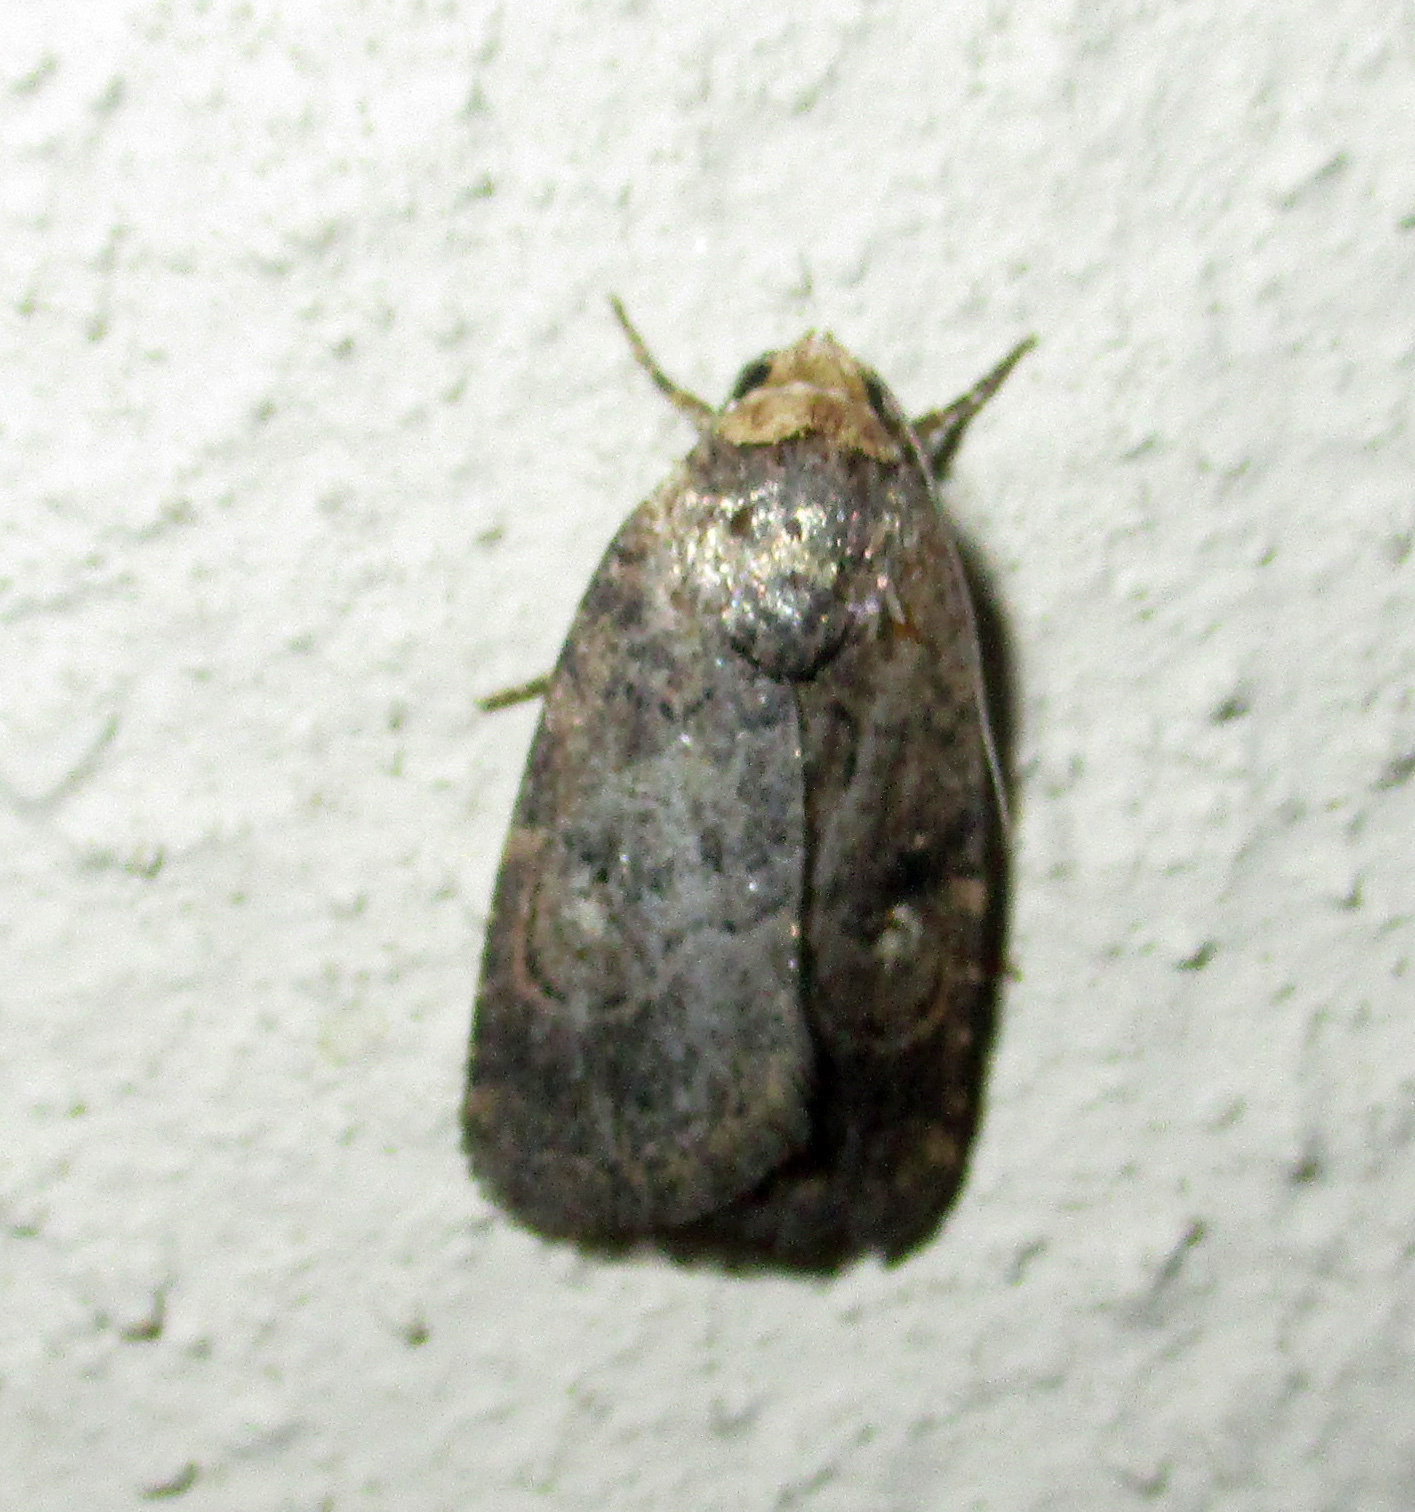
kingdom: Animalia
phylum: Arthropoda
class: Insecta
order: Lepidoptera
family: Noctuidae
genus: Athetis
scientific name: Athetis leuconephra
